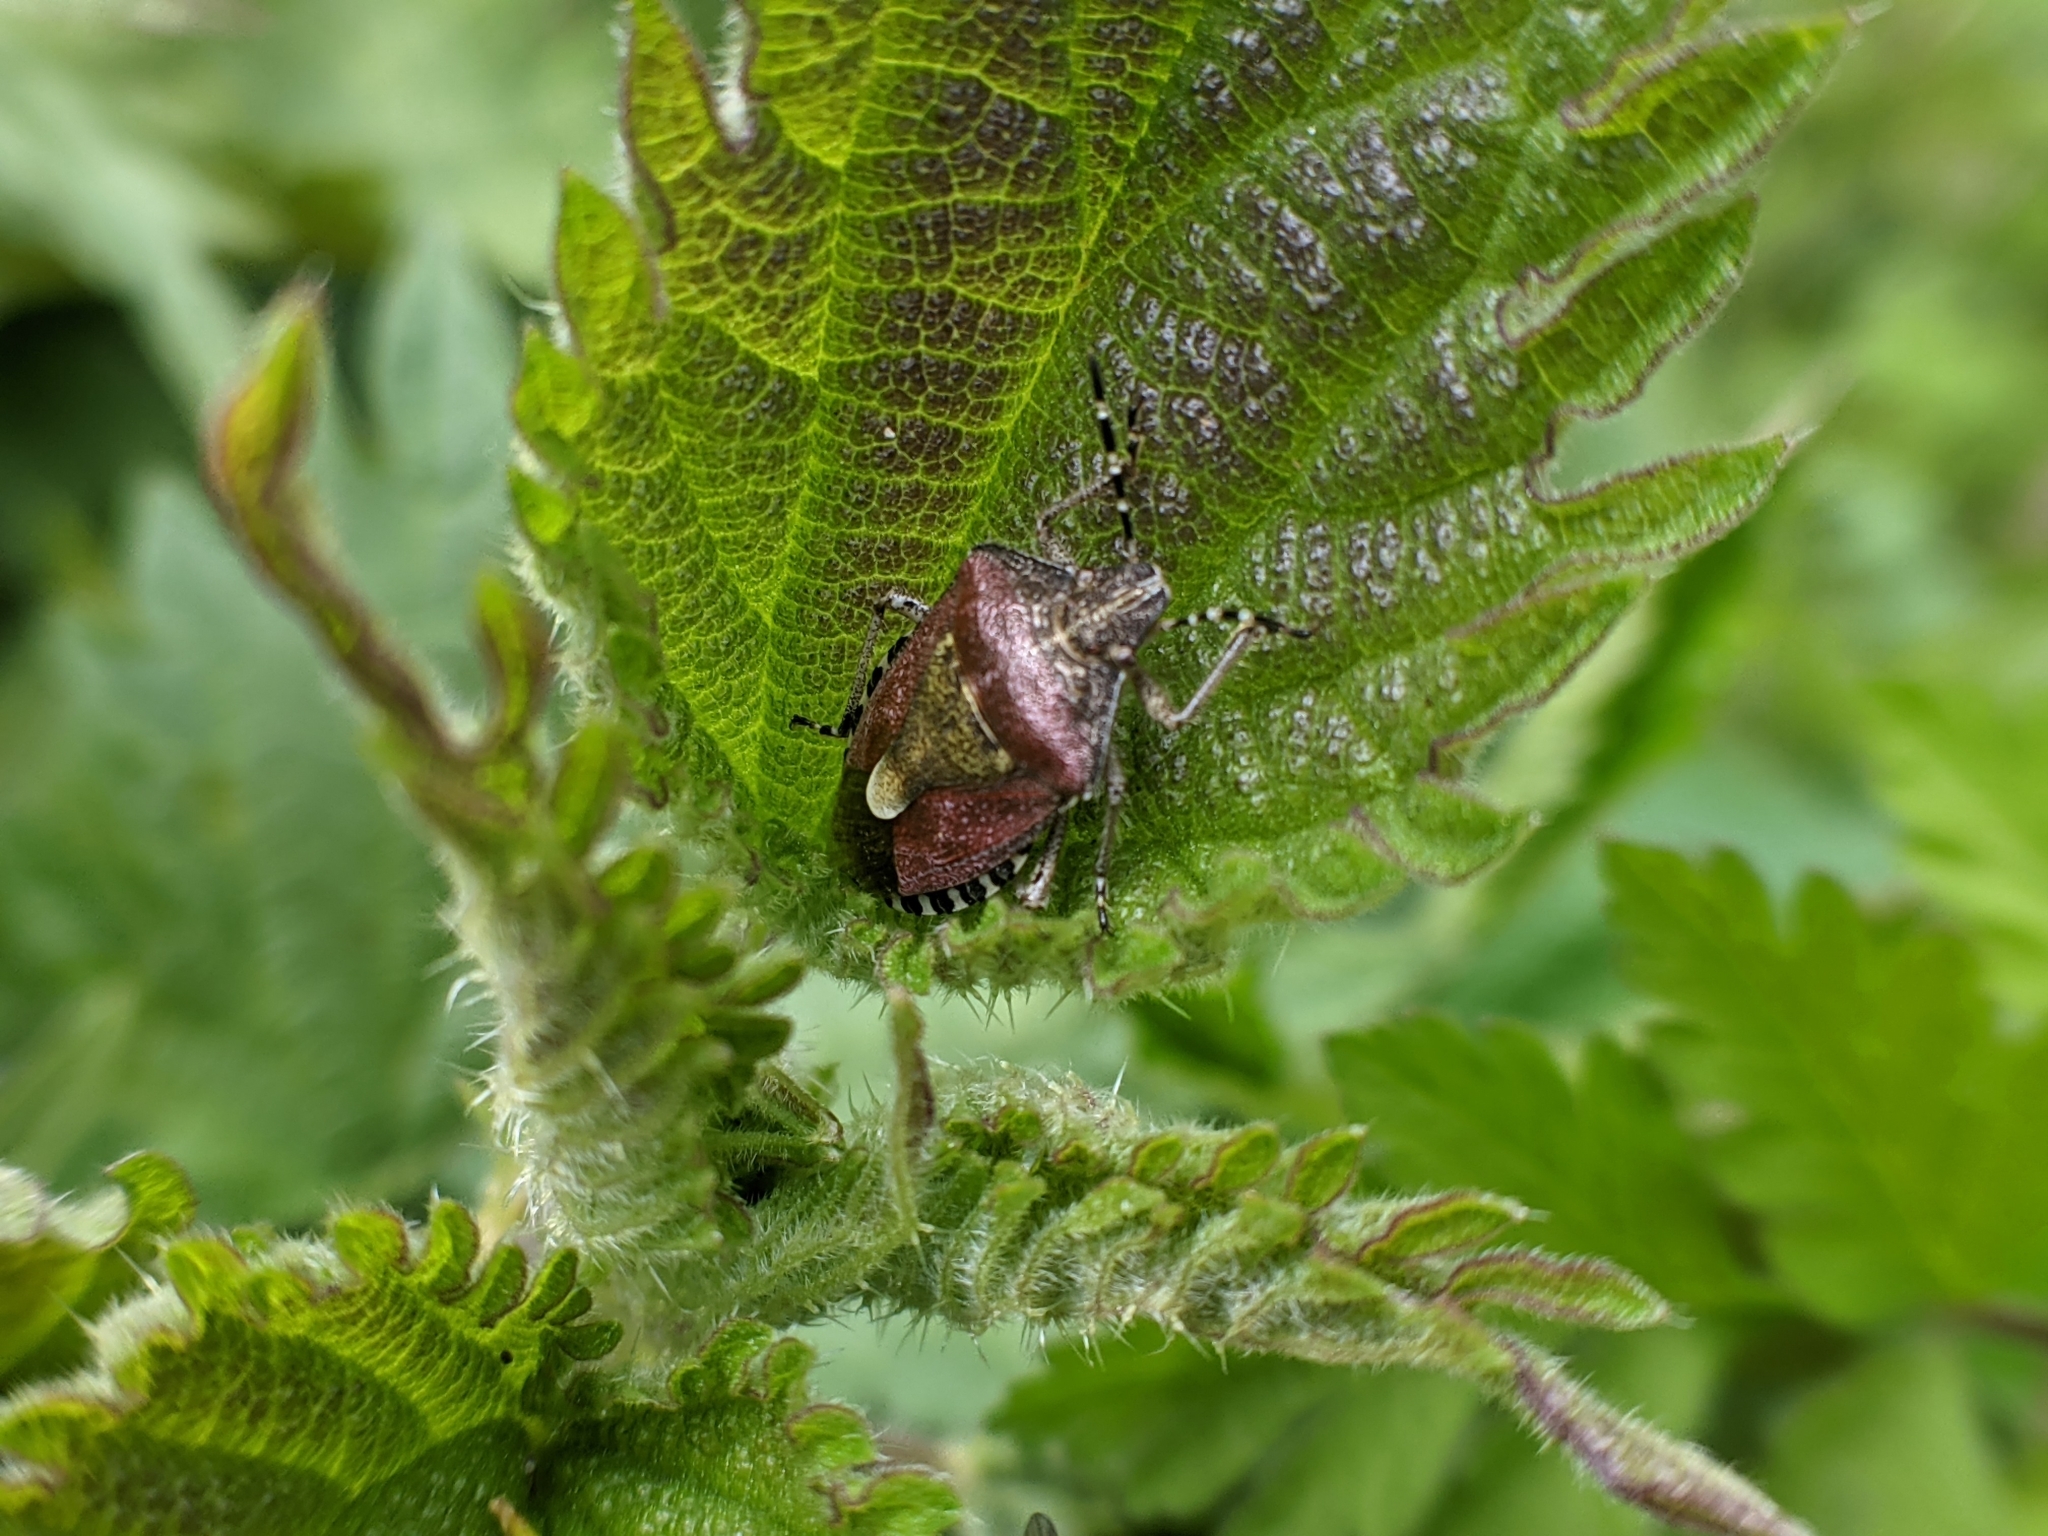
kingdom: Animalia
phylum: Arthropoda
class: Insecta
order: Hemiptera
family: Pentatomidae
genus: Dolycoris
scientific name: Dolycoris baccarum
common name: Sloe bug
